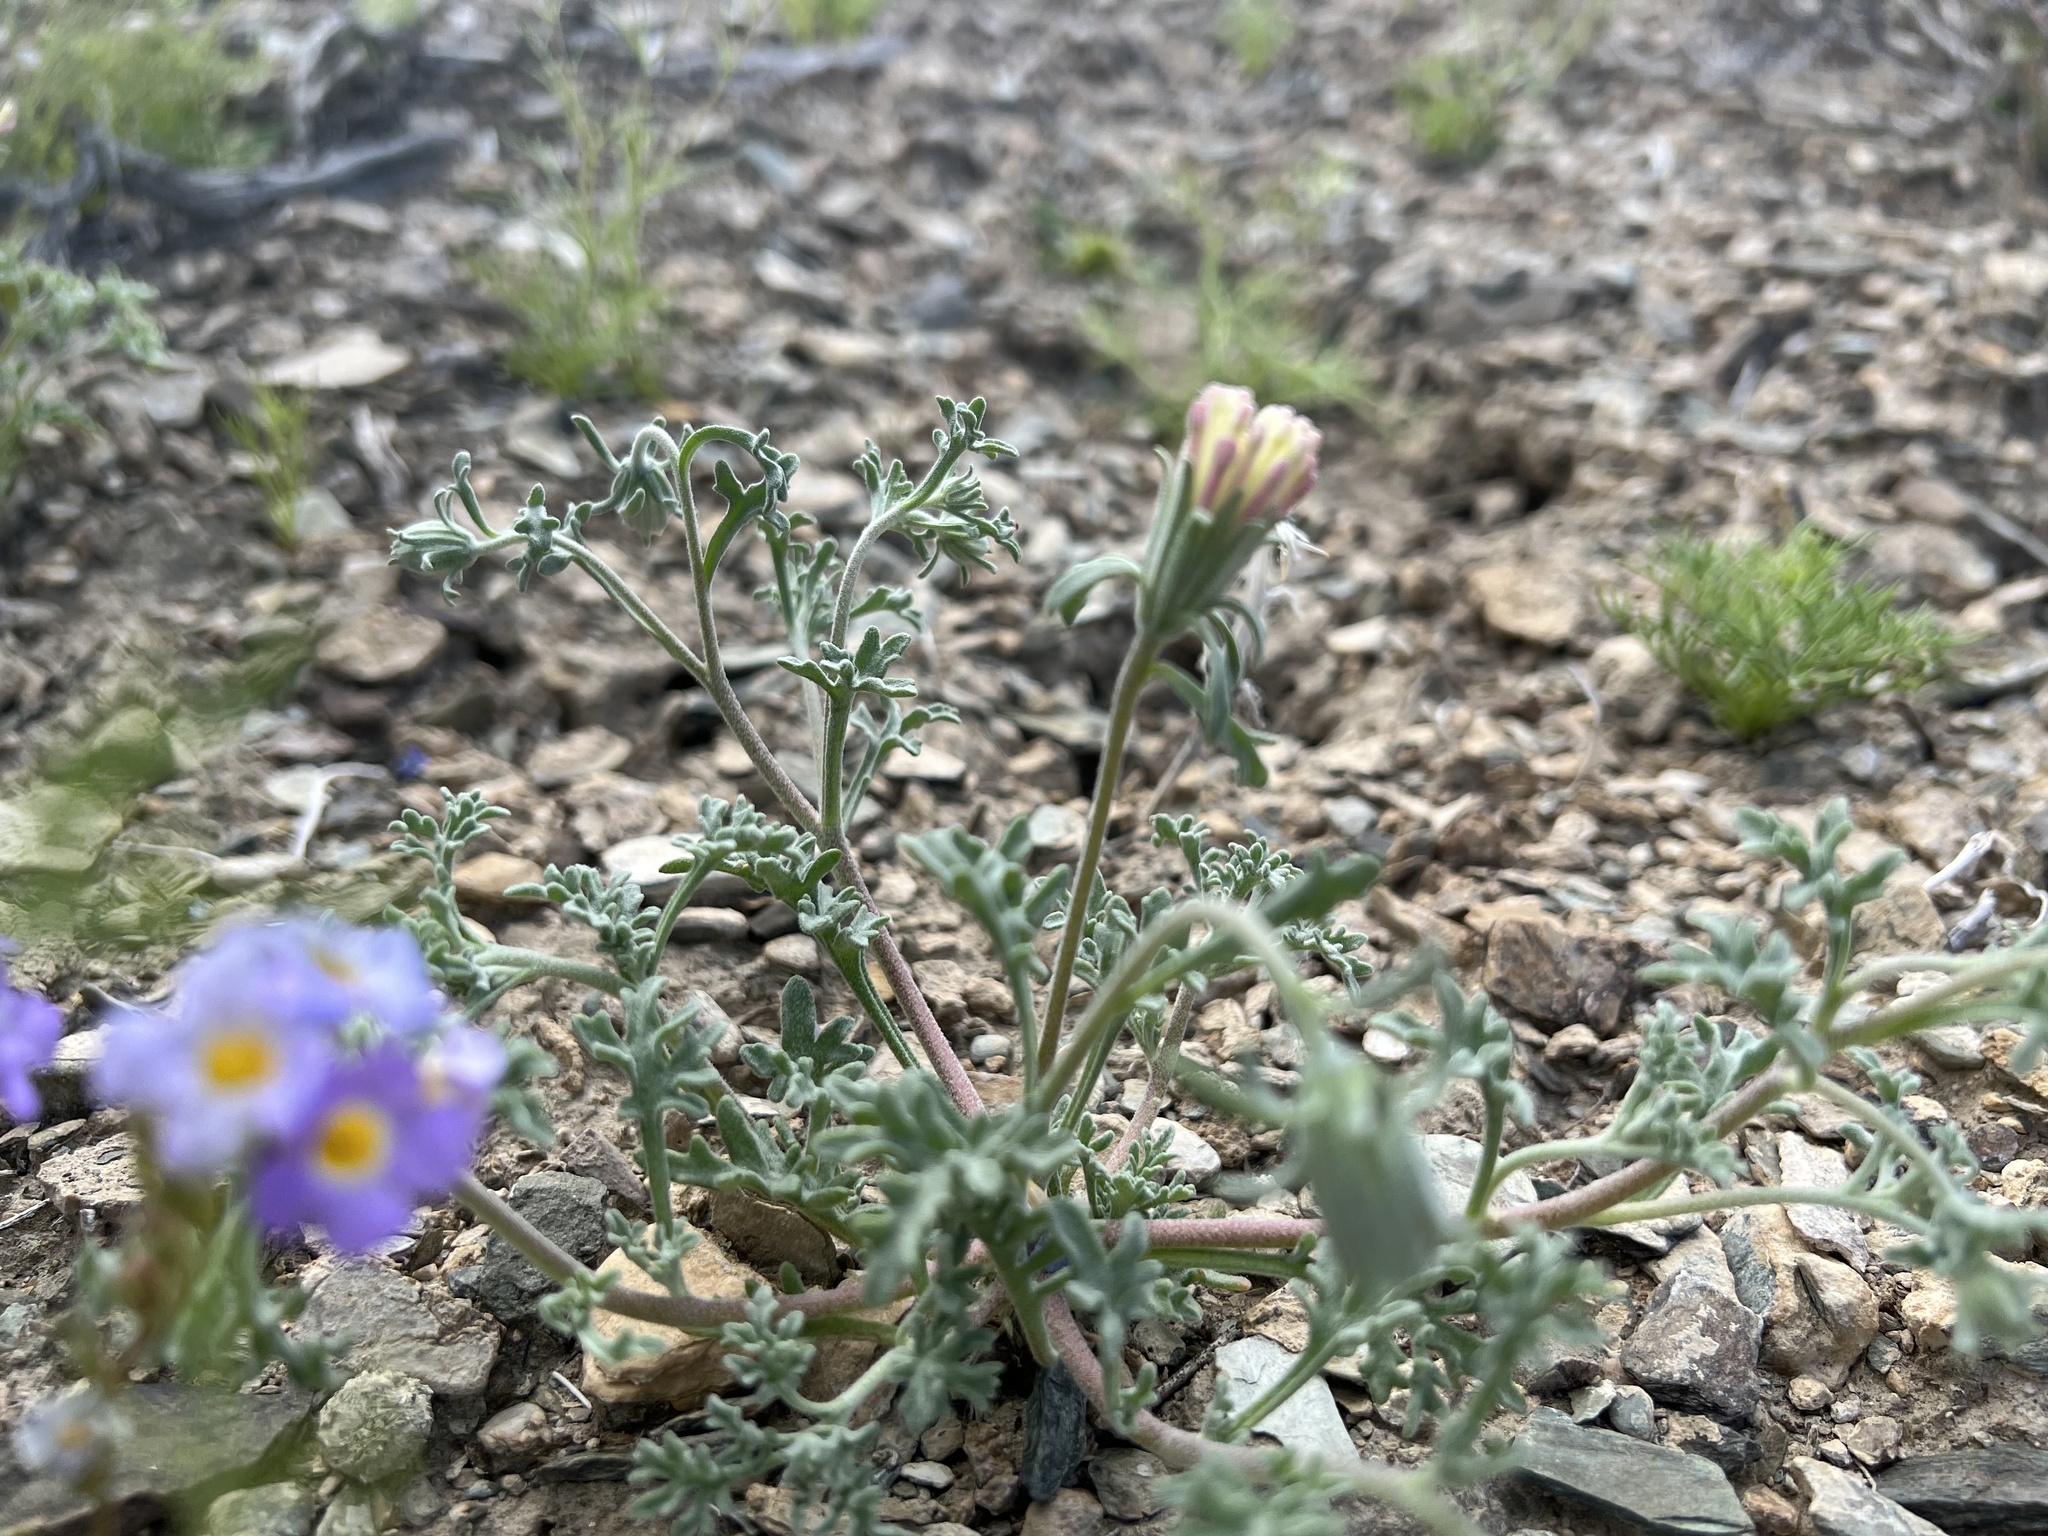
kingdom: Plantae
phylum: Tracheophyta
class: Magnoliopsida
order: Asterales
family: Asteraceae
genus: Chaenactis
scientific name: Chaenactis macrantha
